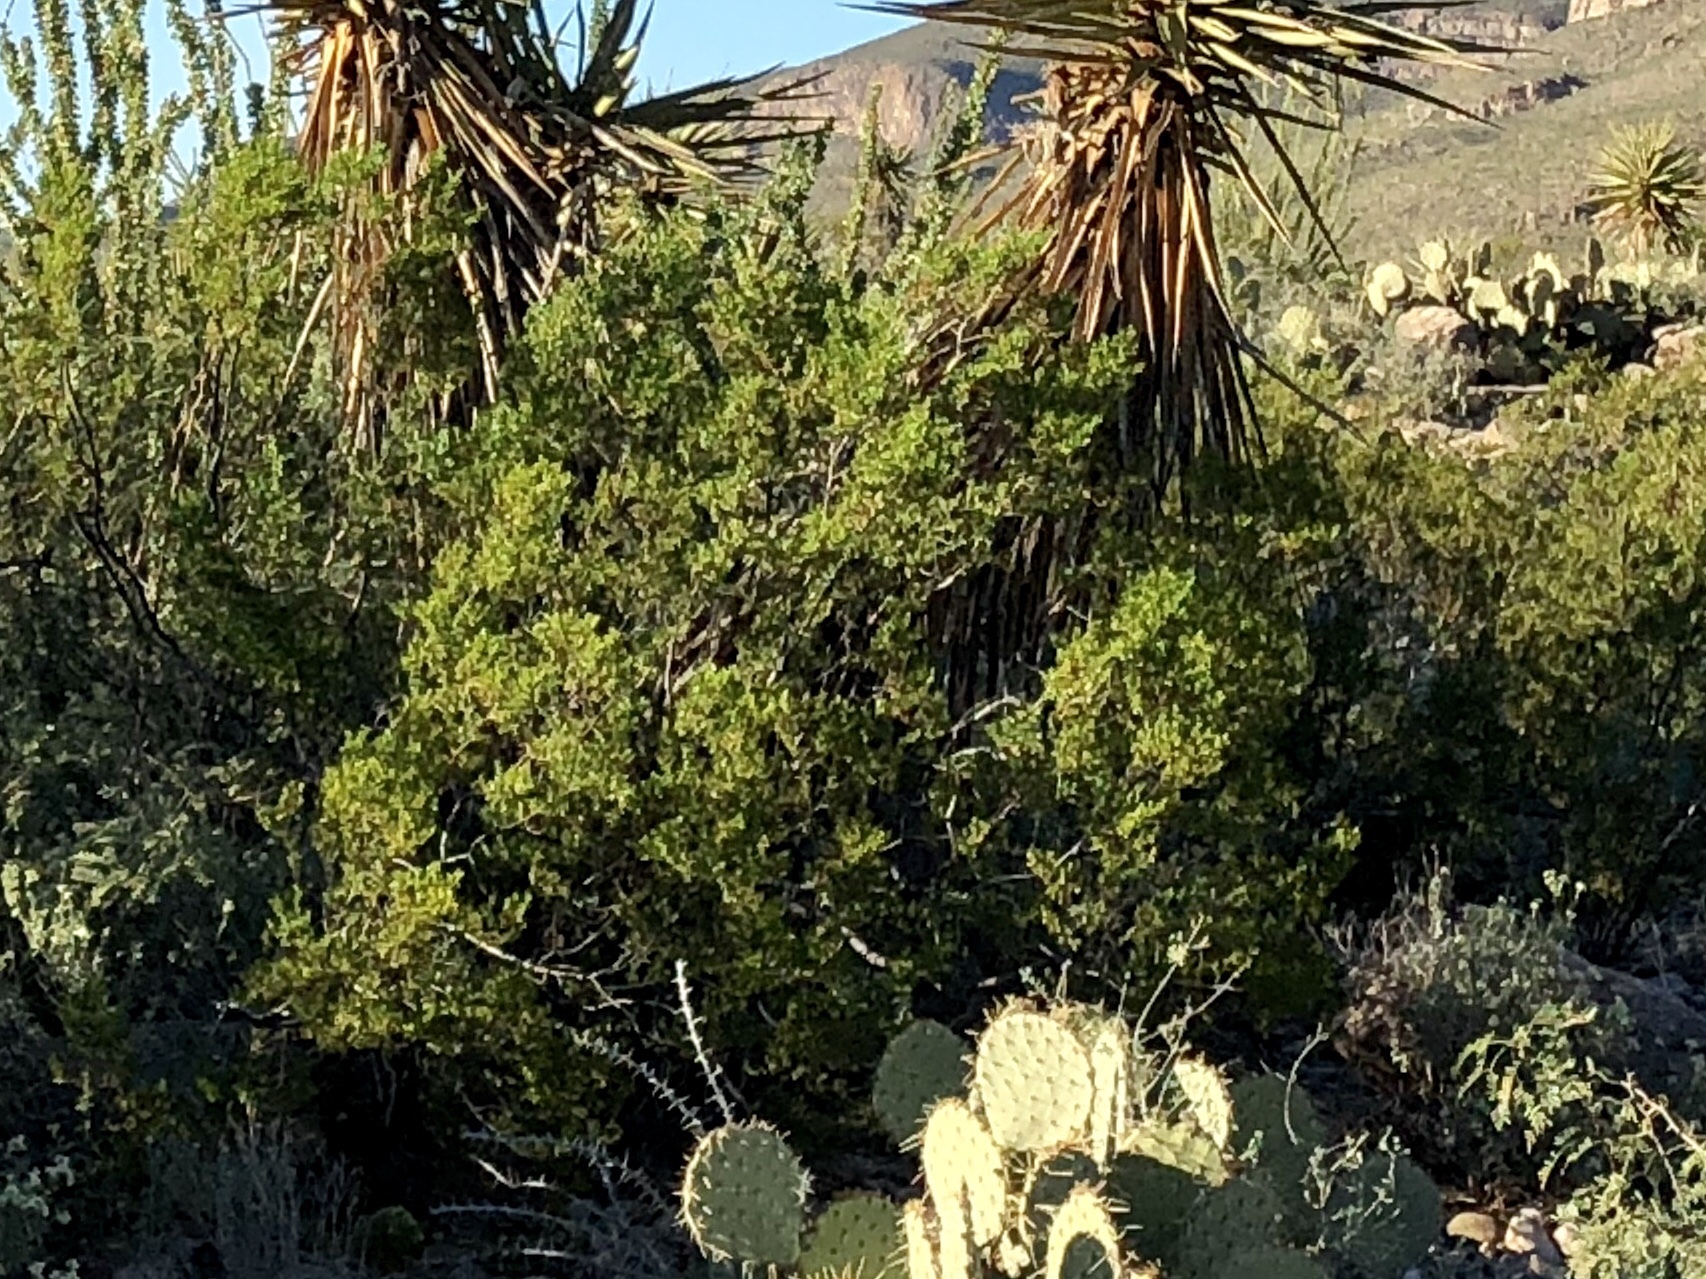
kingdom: Plantae
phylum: Tracheophyta
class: Magnoliopsida
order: Zygophyllales
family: Zygophyllaceae
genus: Larrea
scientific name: Larrea tridentata
